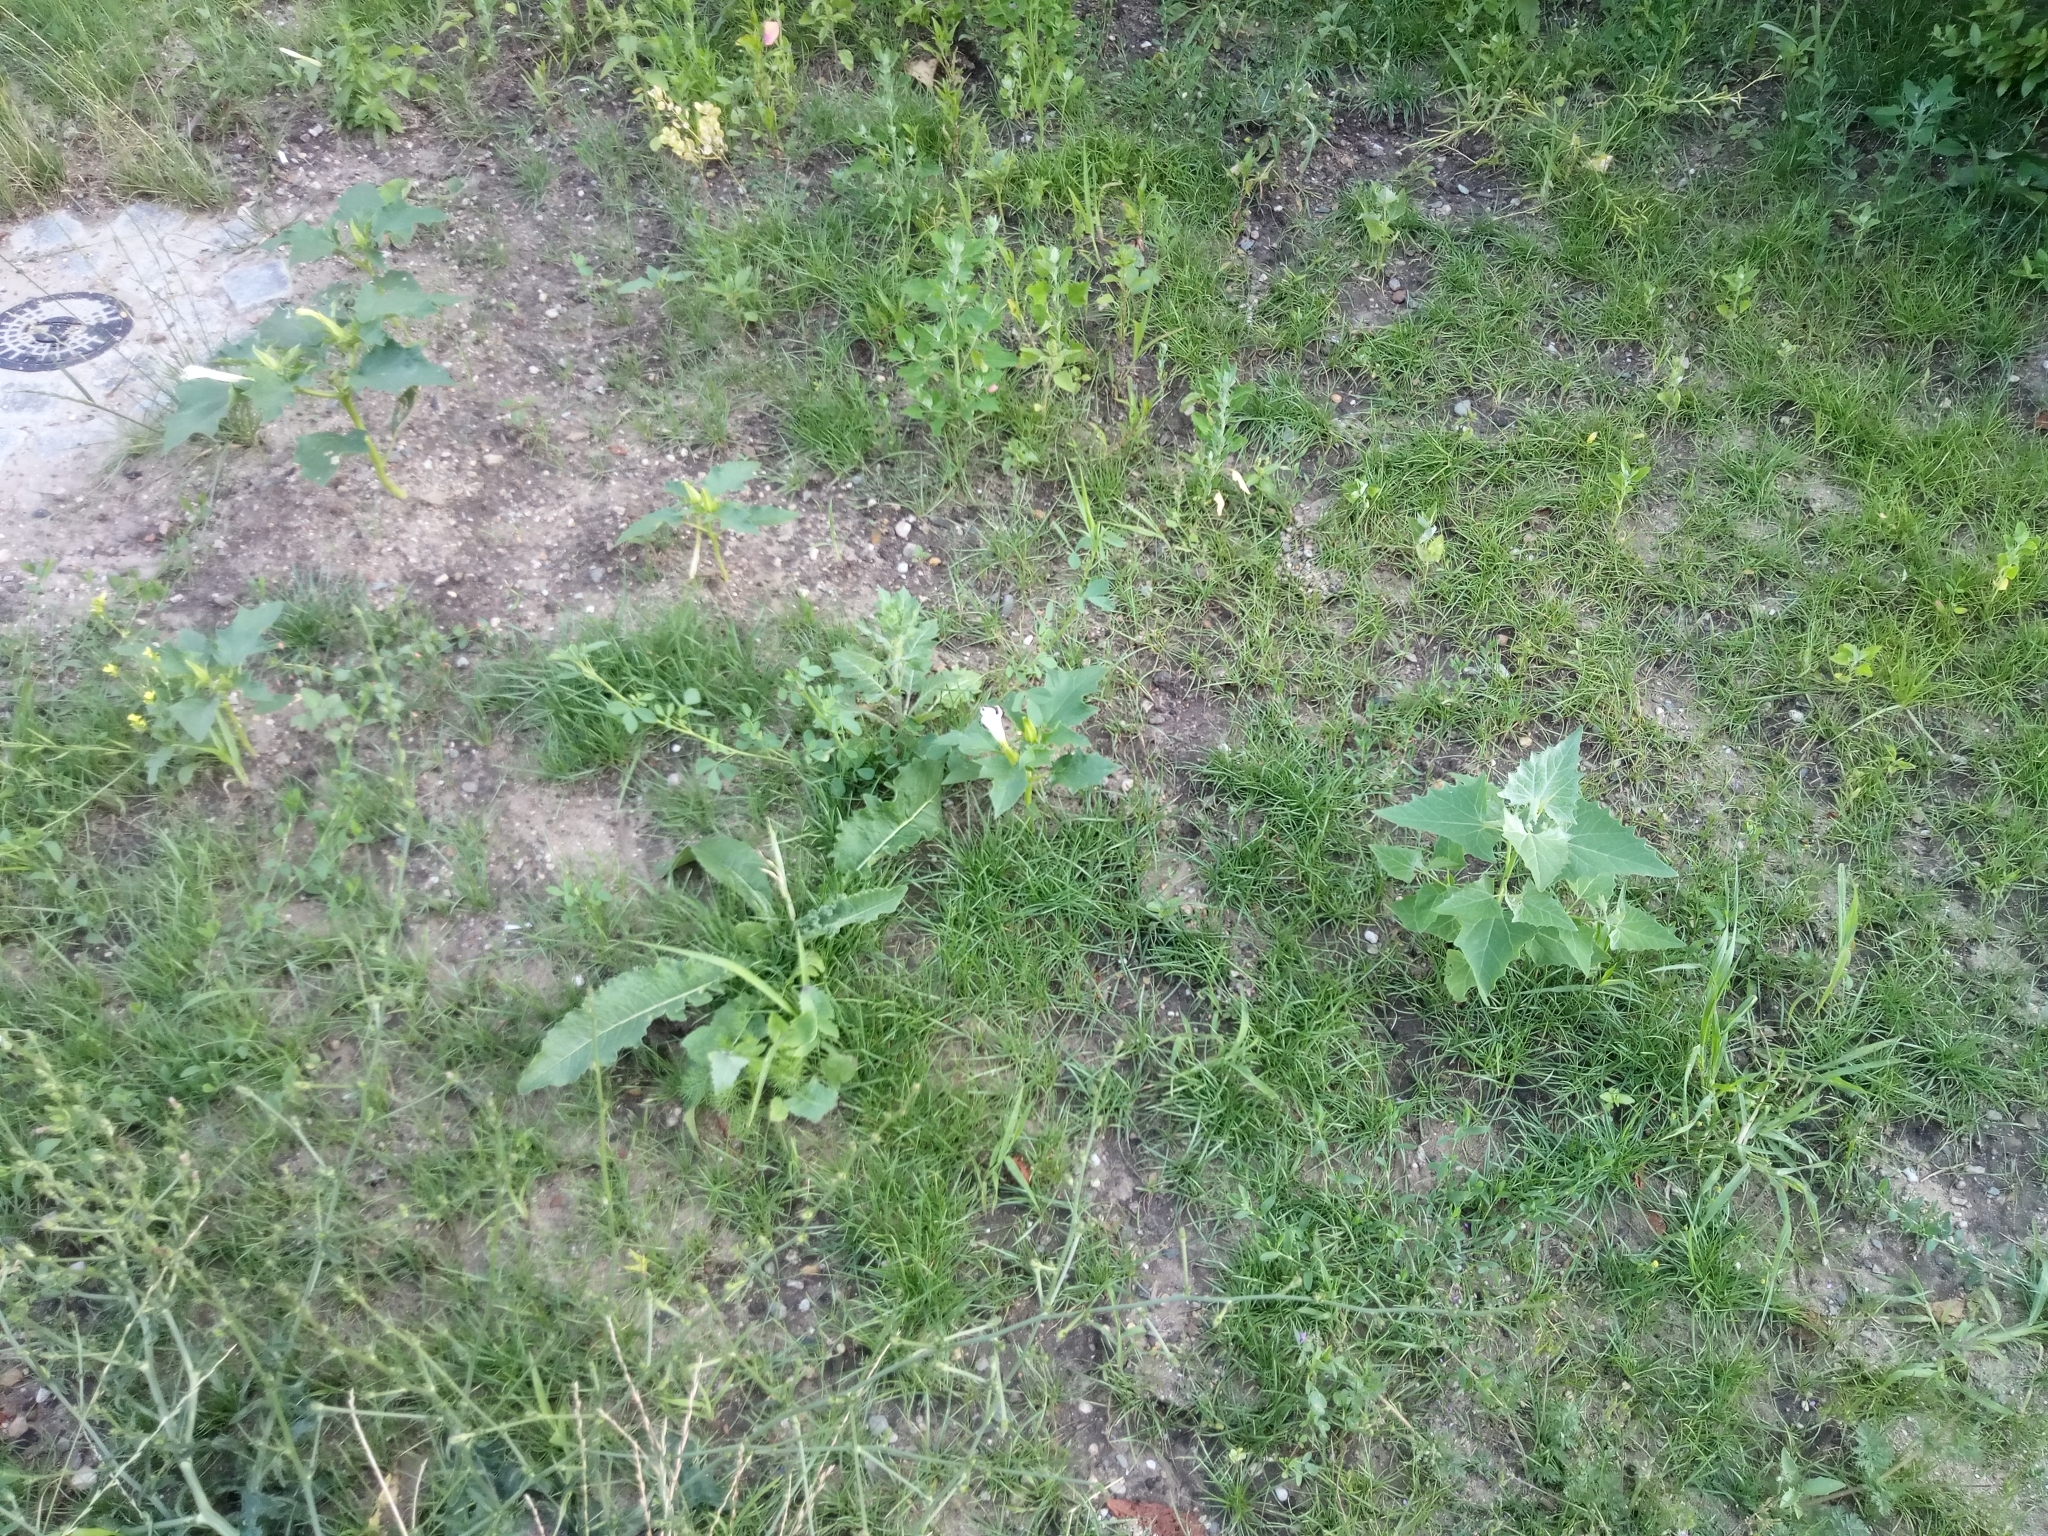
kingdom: Plantae
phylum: Tracheophyta
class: Magnoliopsida
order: Solanales
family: Solanaceae
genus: Datura
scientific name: Datura stramonium
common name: Thorn-apple
